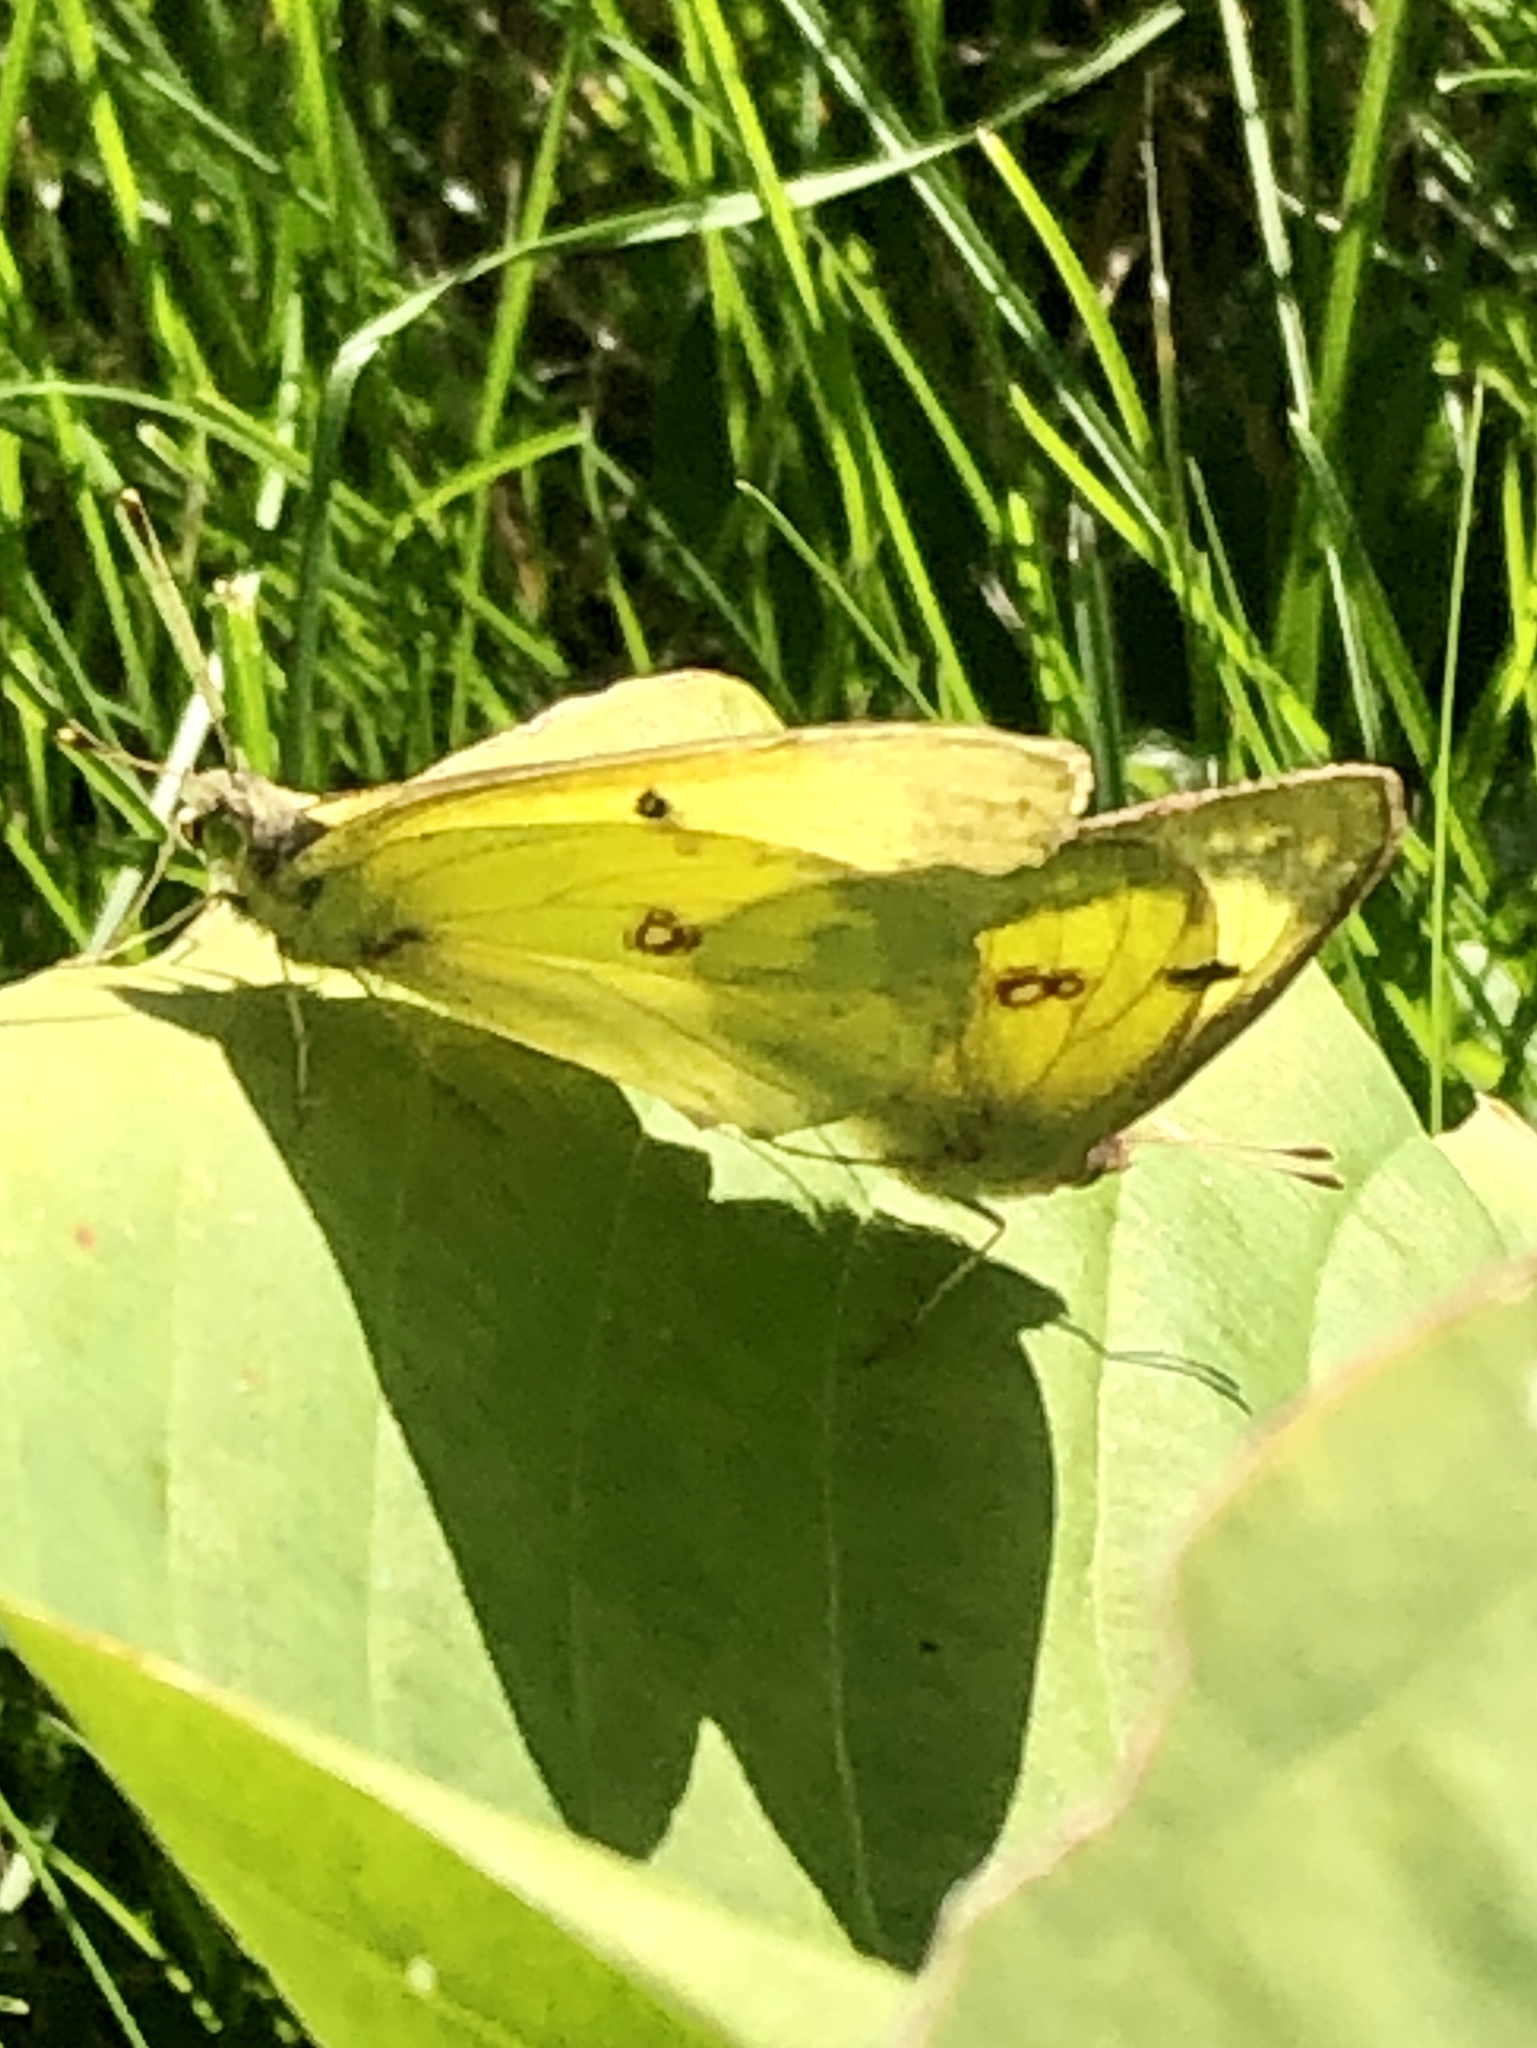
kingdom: Animalia
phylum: Arthropoda
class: Insecta
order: Lepidoptera
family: Pieridae
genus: Colias
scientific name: Colias philodice
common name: Clouded sulphur
